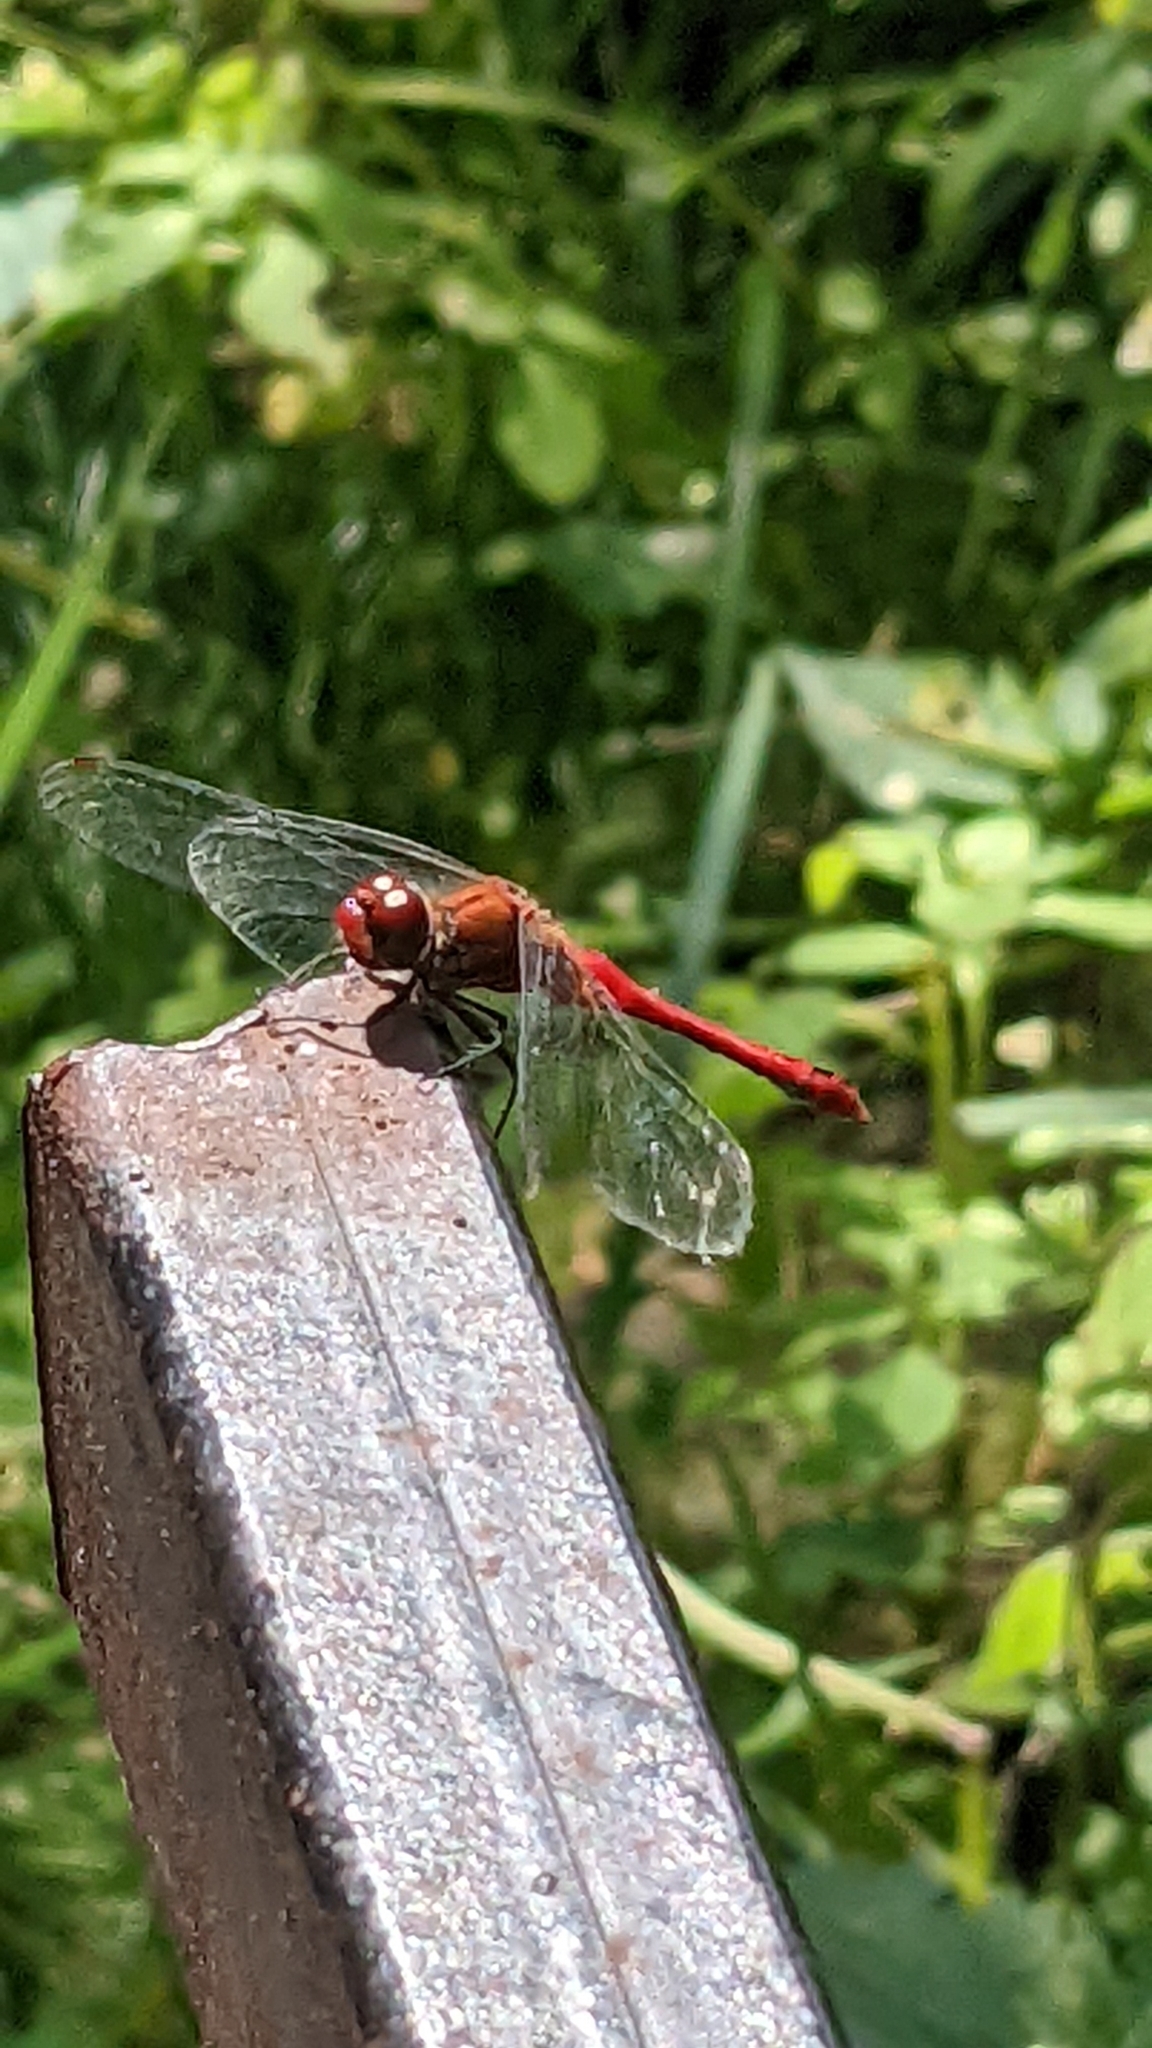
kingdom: Animalia
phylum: Arthropoda
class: Insecta
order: Odonata
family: Libellulidae
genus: Sympetrum
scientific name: Sympetrum sanguineum
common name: Ruddy darter
